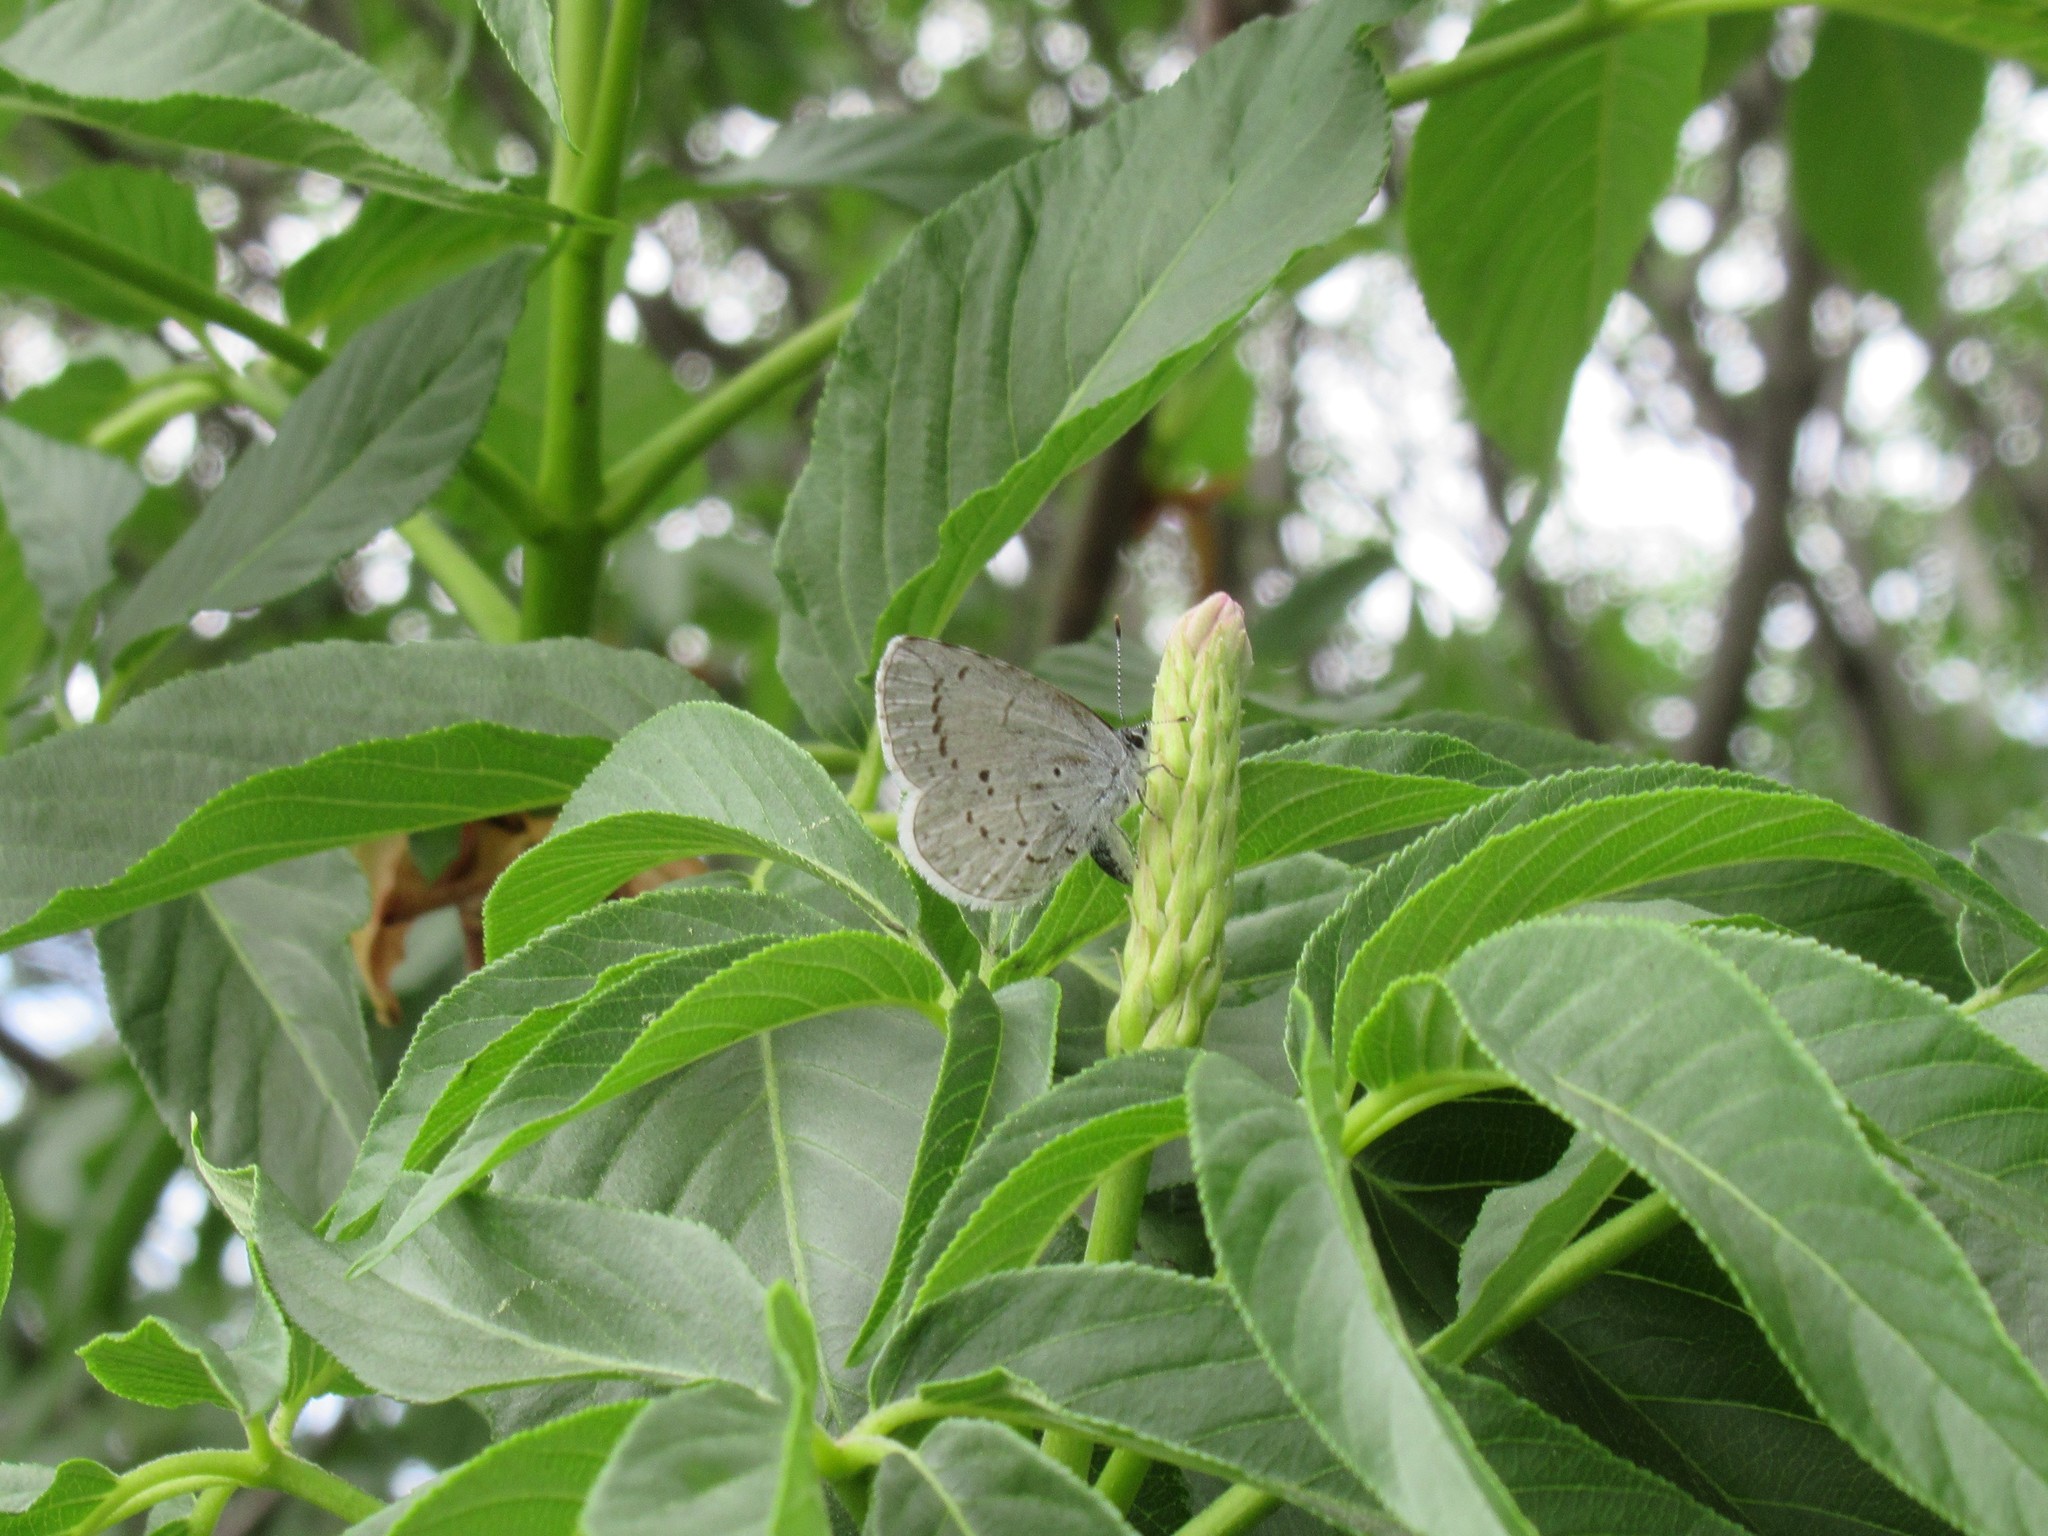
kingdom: Animalia
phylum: Arthropoda
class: Insecta
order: Lepidoptera
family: Lycaenidae
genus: Celastrina
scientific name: Celastrina ladon
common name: Spring azure
